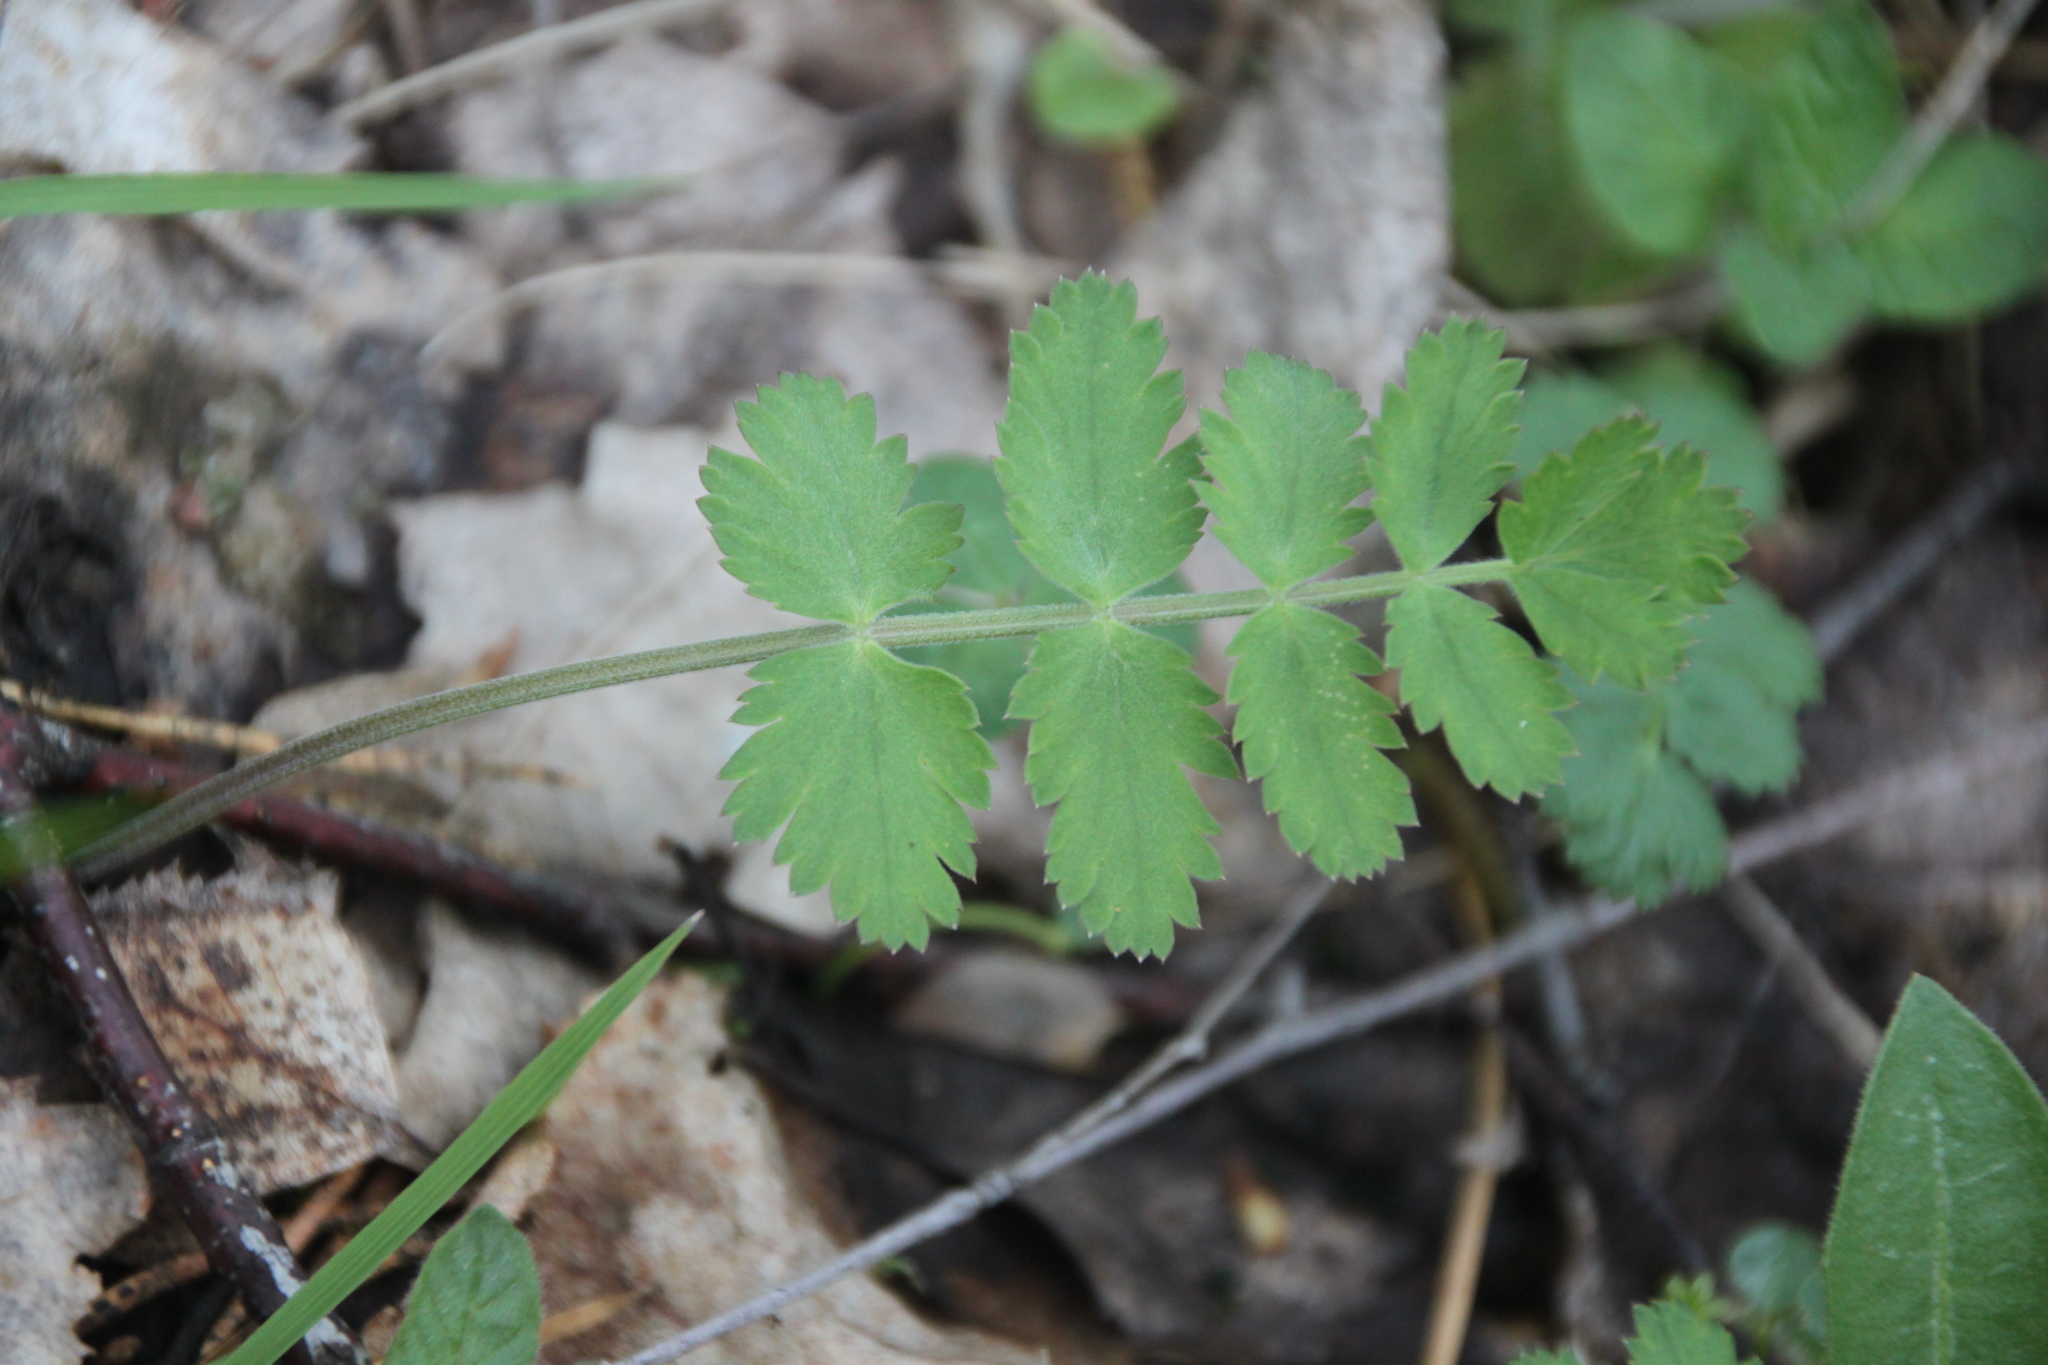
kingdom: Plantae
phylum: Tracheophyta
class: Magnoliopsida
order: Apiales
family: Apiaceae
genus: Pimpinella
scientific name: Pimpinella saxifraga
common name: Burnet-saxifrage
